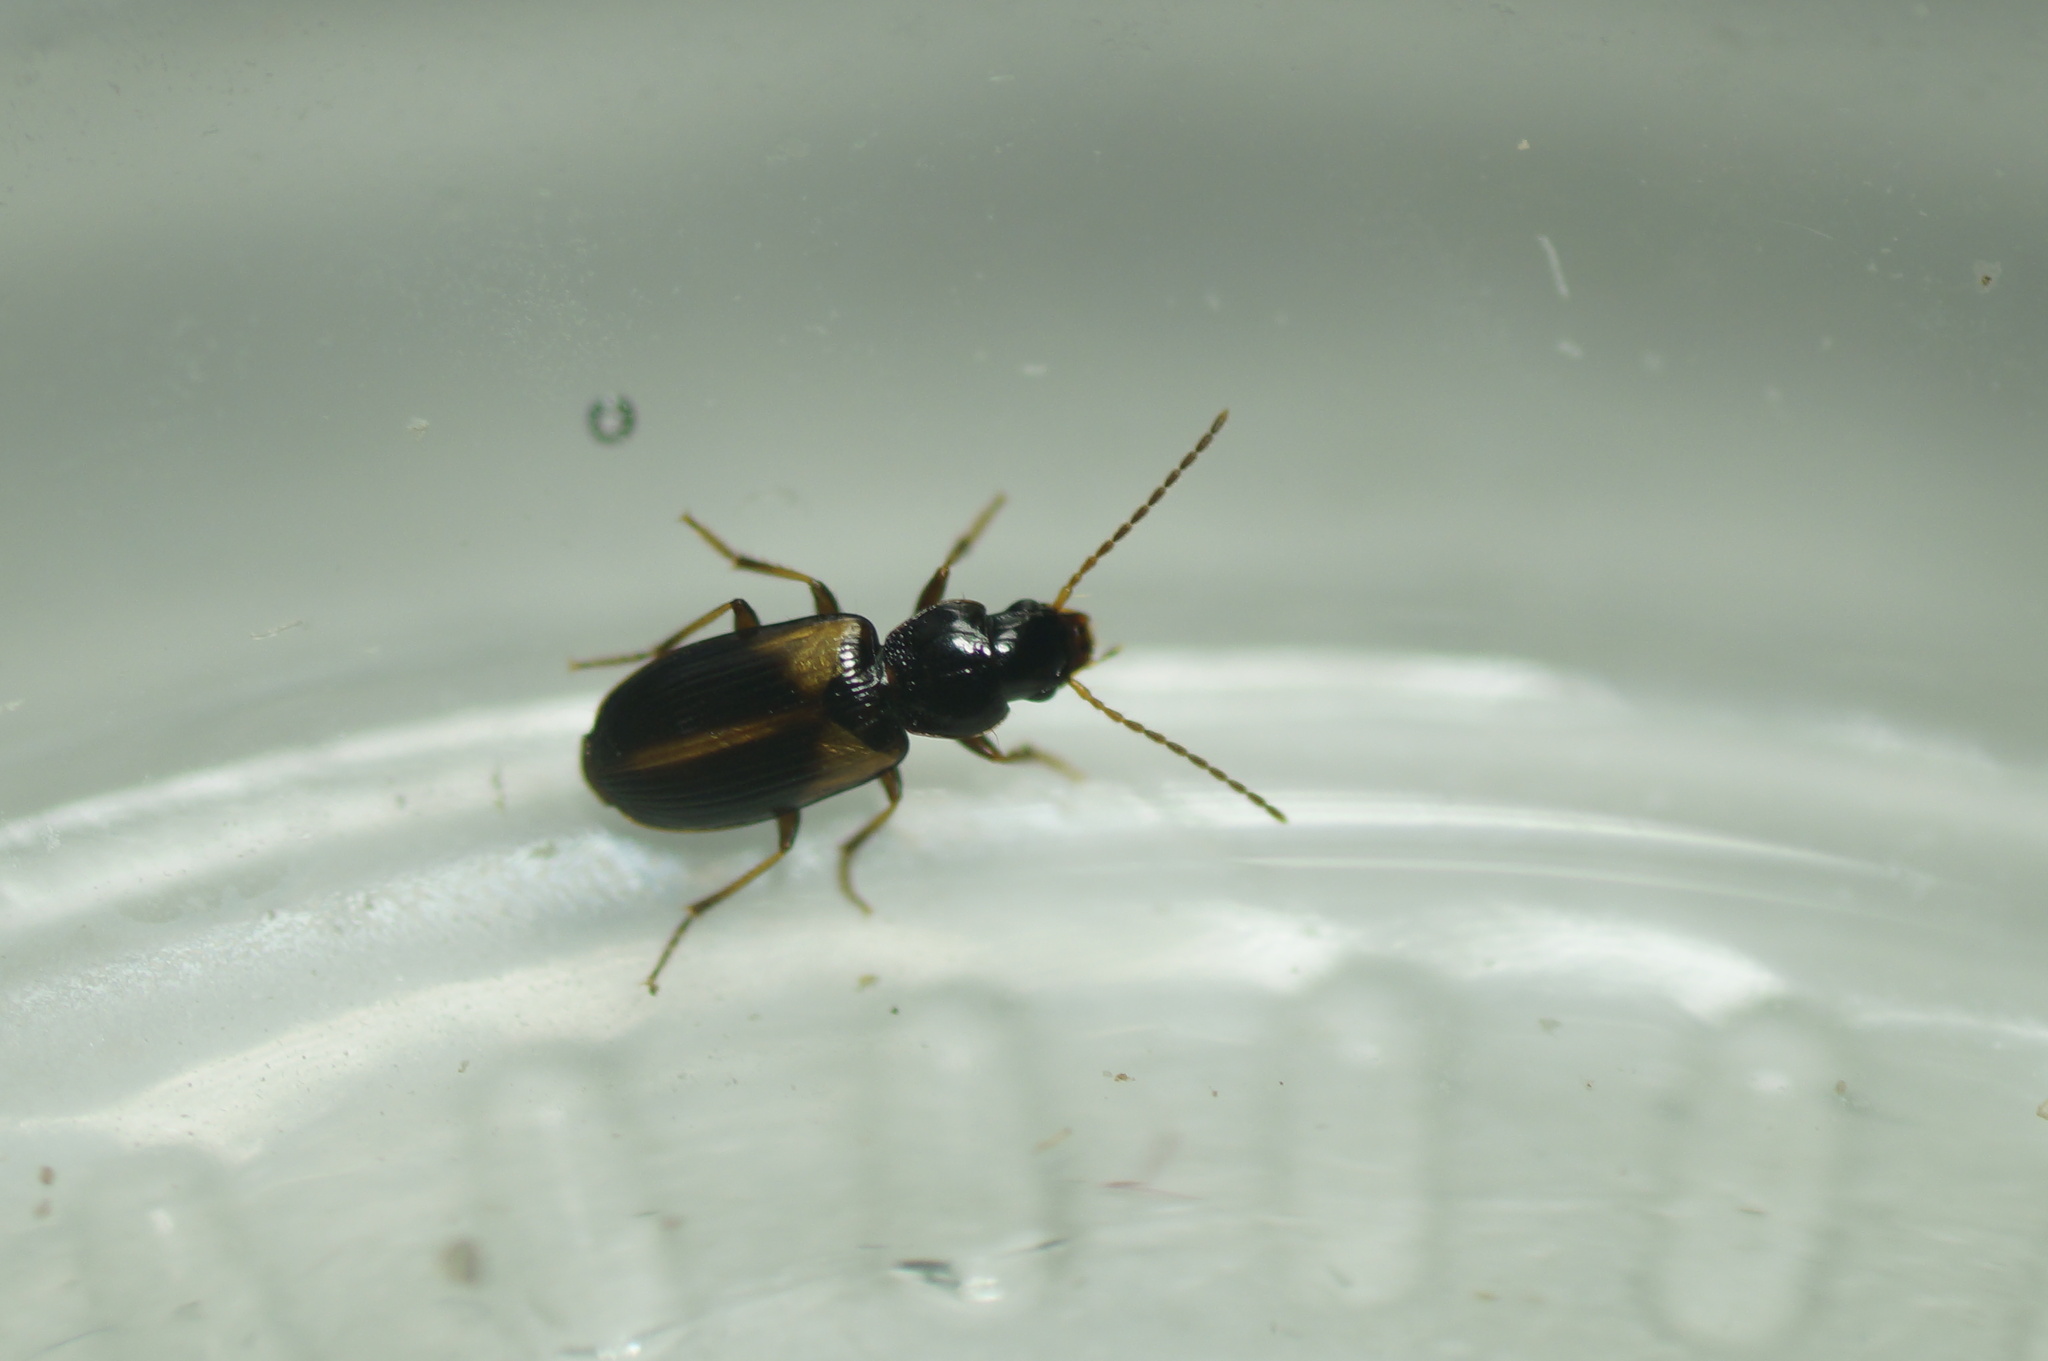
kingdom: Animalia
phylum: Arthropoda
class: Insecta
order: Coleoptera
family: Carabidae
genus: Acupalpus
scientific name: Acupalpus meridianus
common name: Midday harp ground beetle
